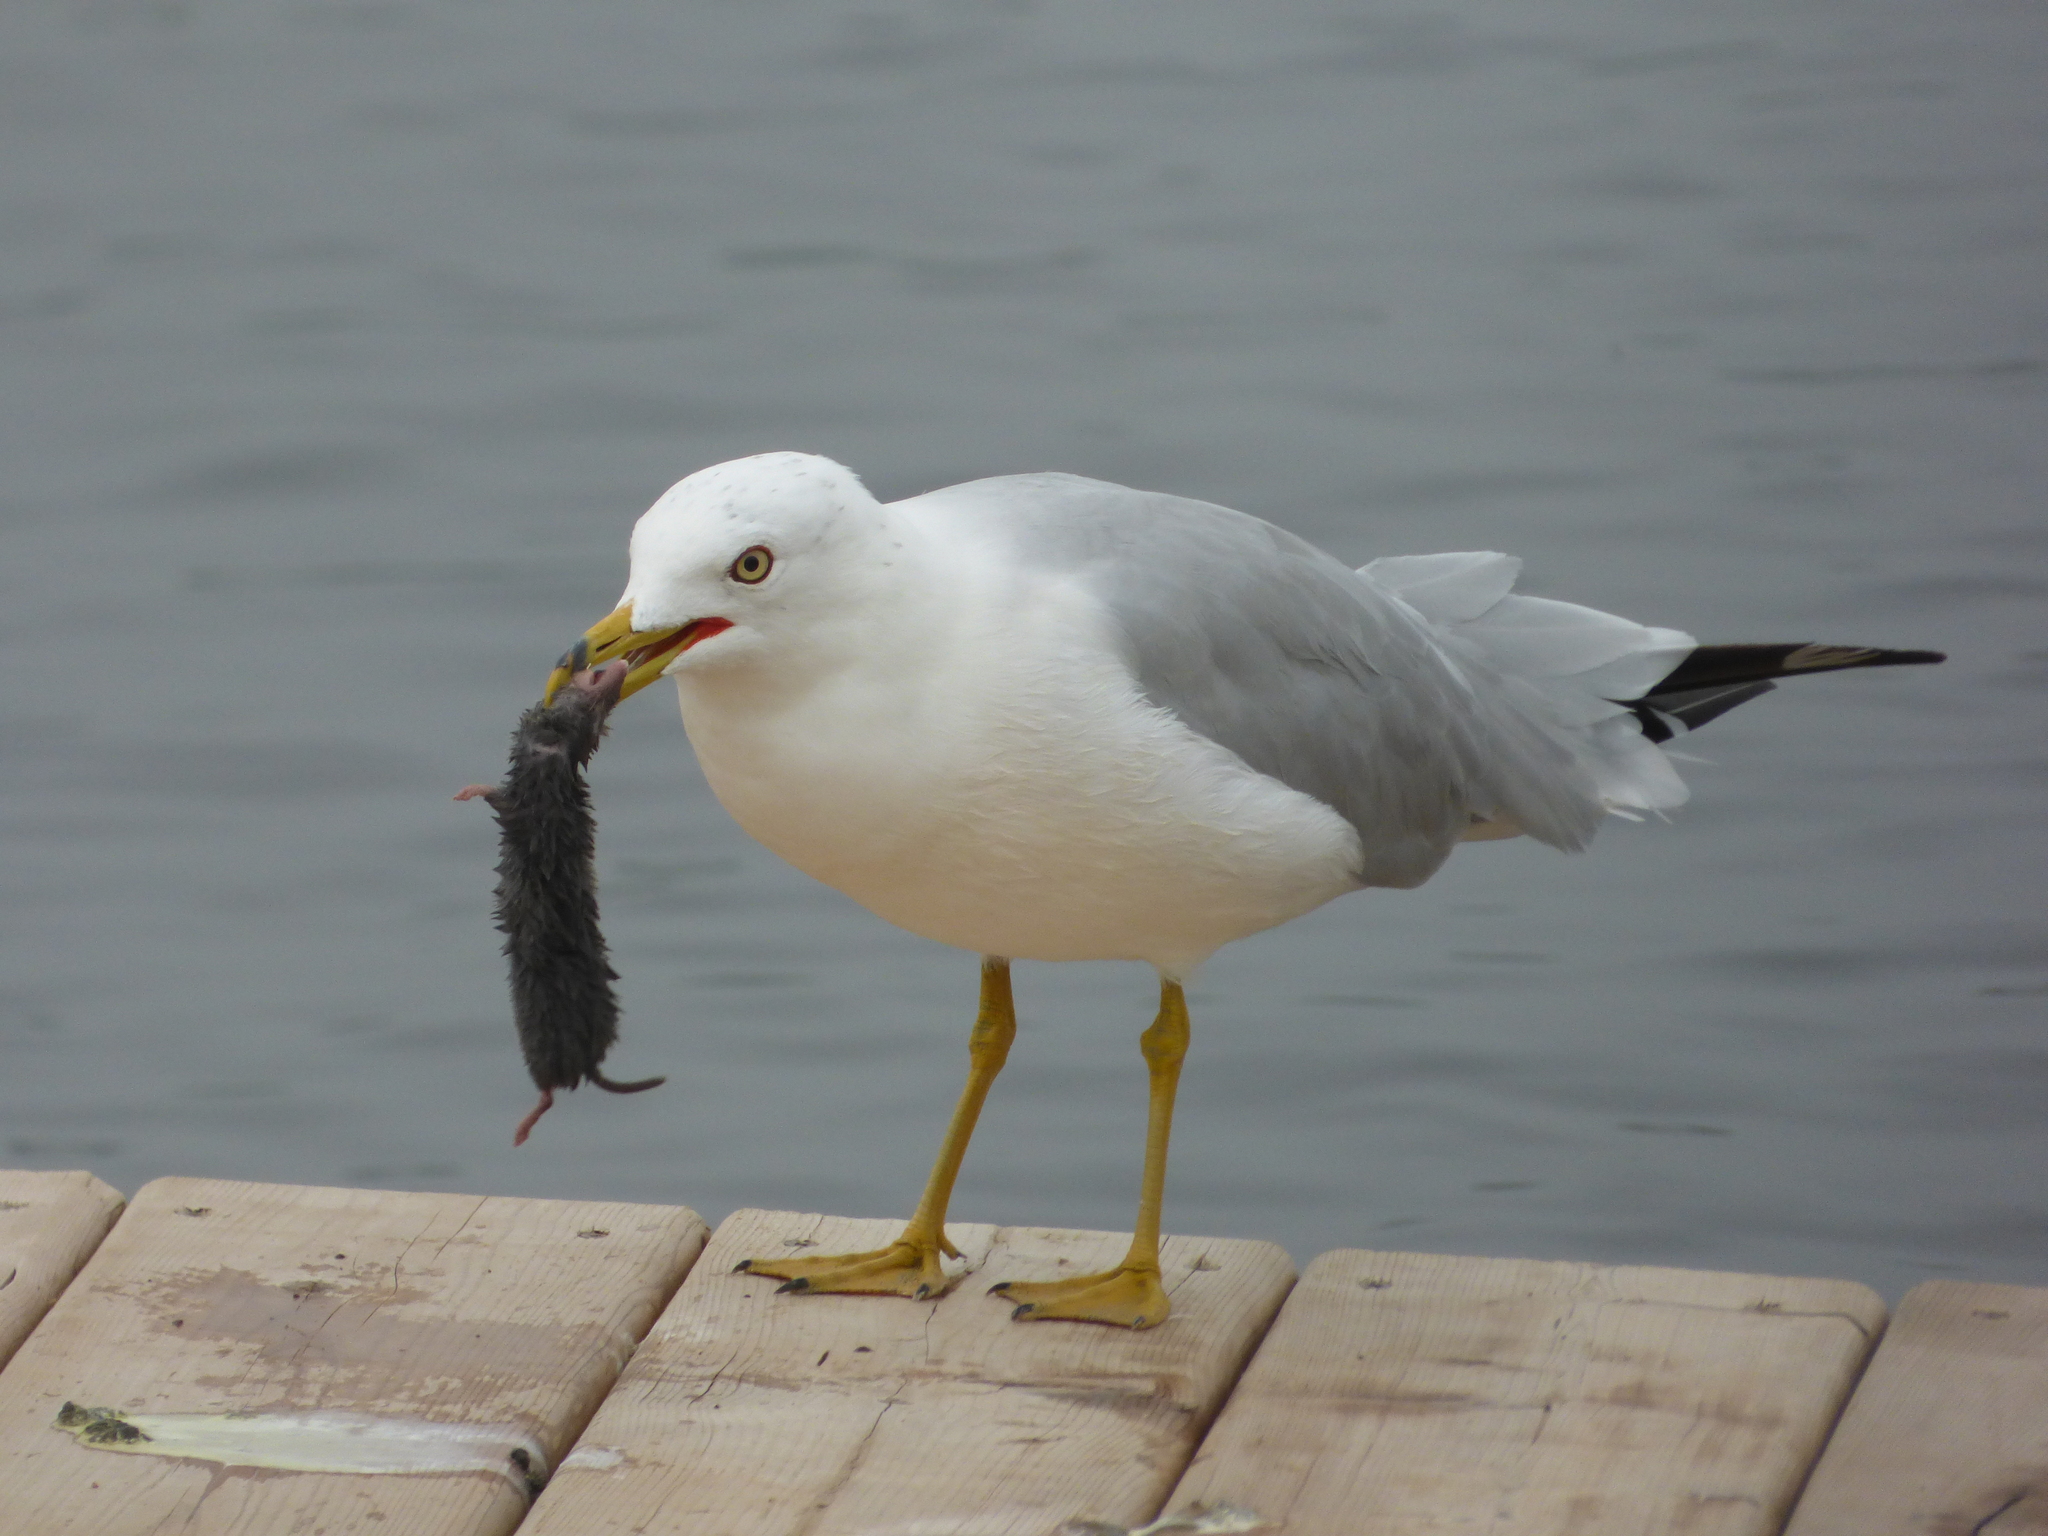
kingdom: Animalia
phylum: Chordata
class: Aves
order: Charadriiformes
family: Laridae
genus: Larus
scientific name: Larus delawarensis
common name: Ring-billed gull
